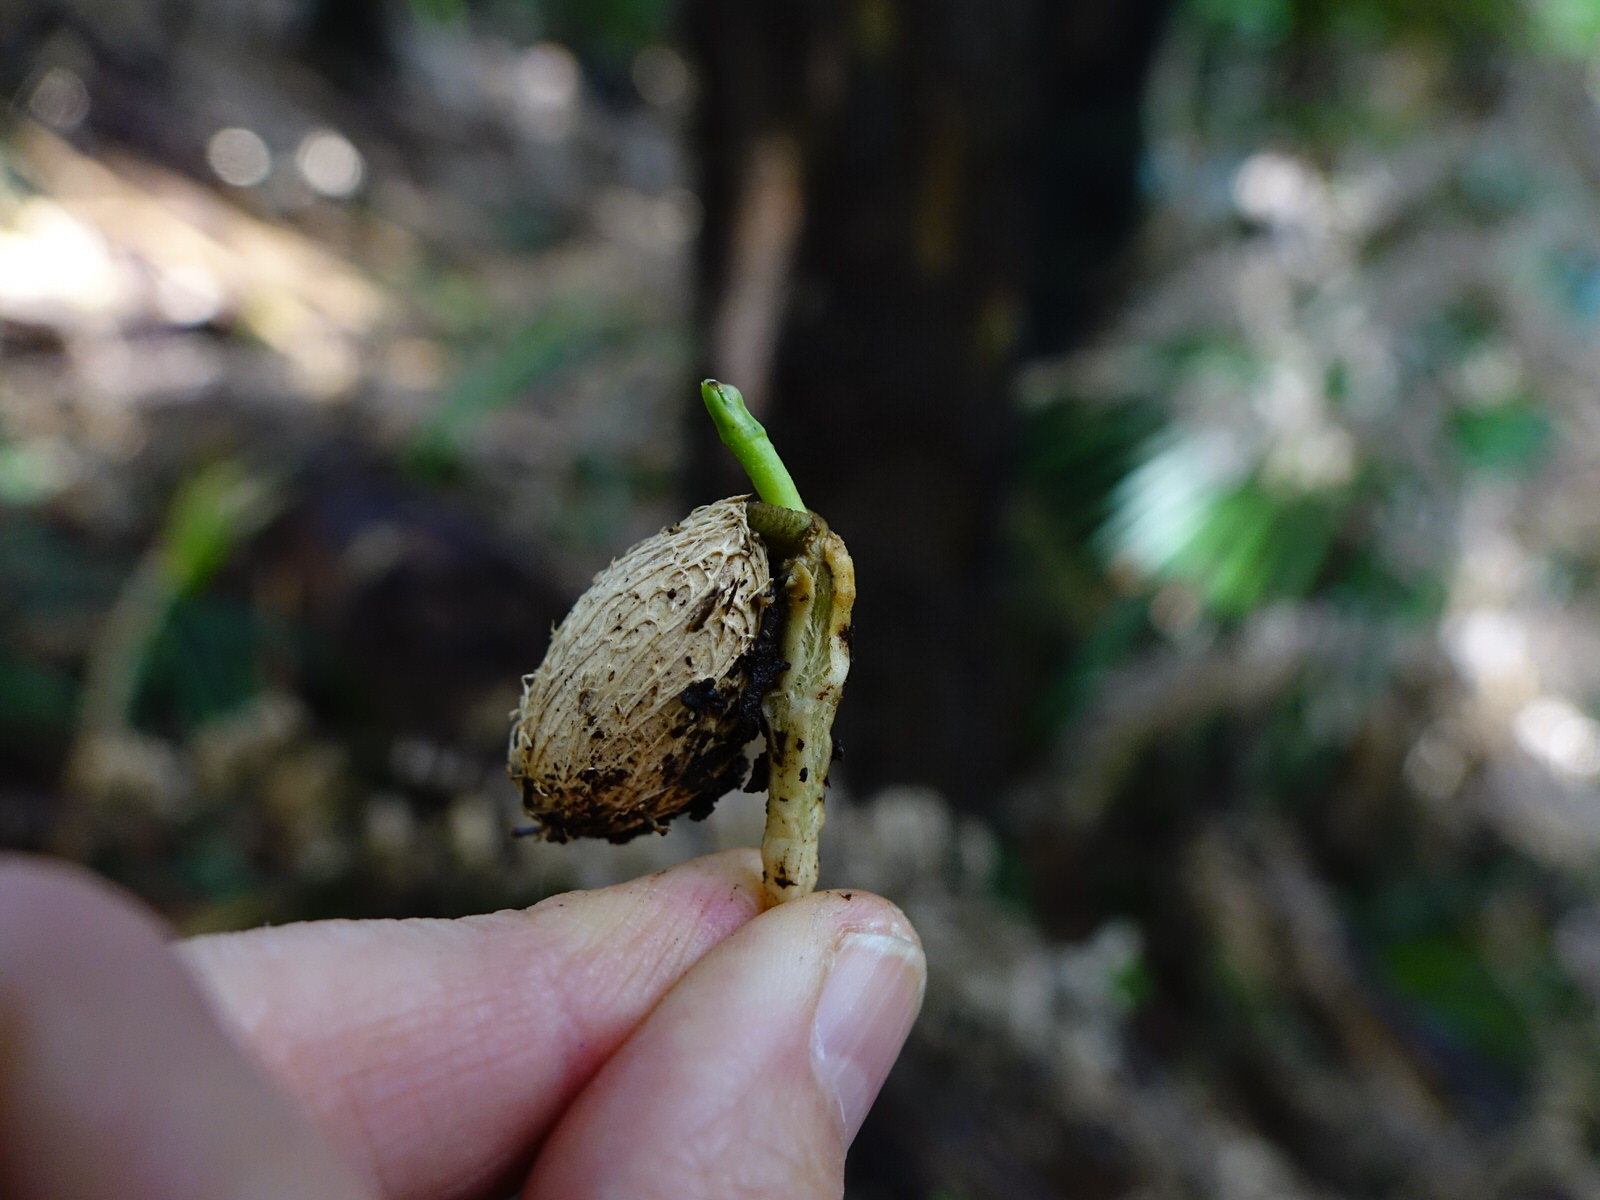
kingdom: Plantae
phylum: Tracheophyta
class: Magnoliopsida
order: Cucurbitales
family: Corynocarpaceae
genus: Corynocarpus
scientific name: Corynocarpus laevigatus
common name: New zealand laurel
